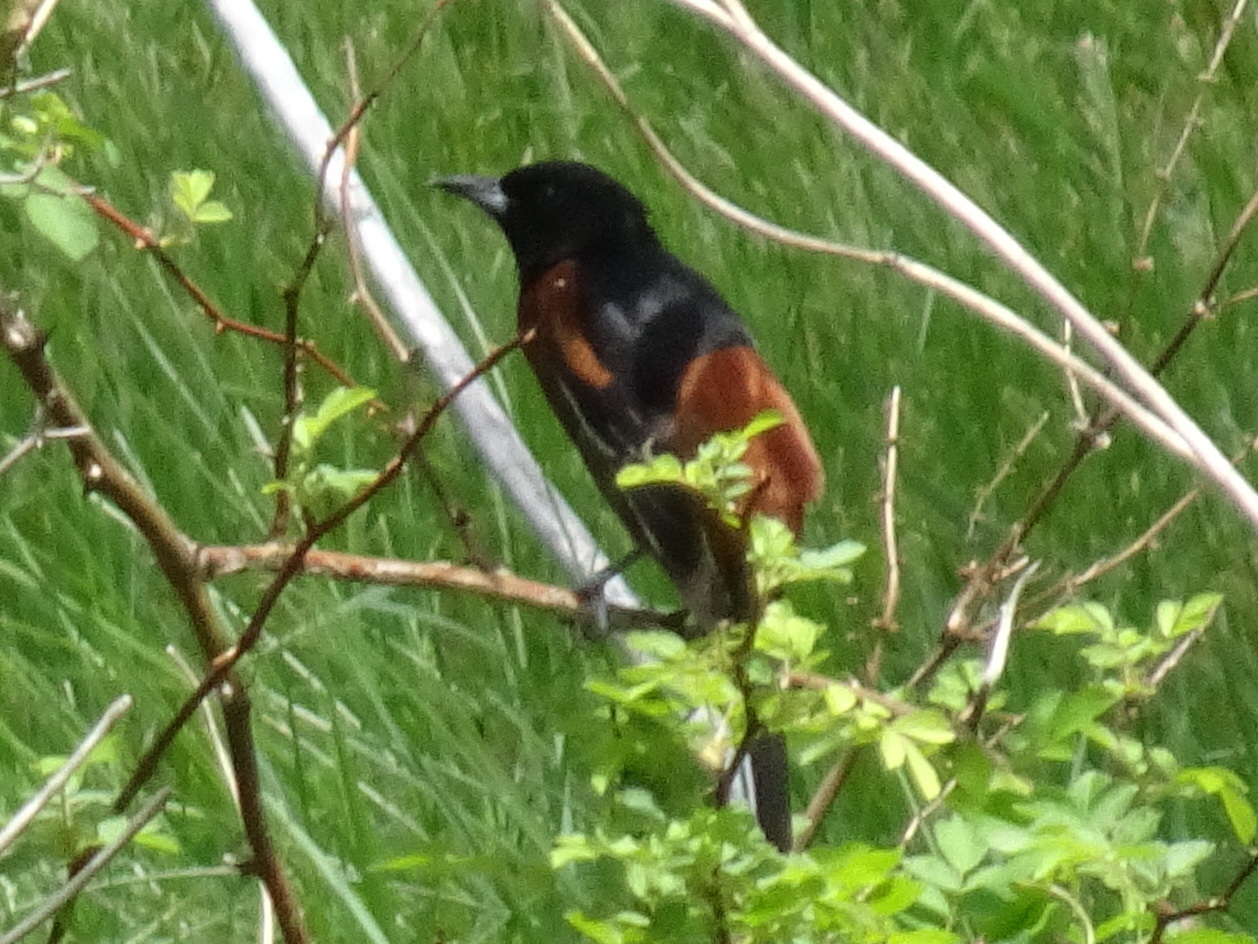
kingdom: Animalia
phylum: Chordata
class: Aves
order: Passeriformes
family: Icteridae
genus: Icterus
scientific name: Icterus spurius
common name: Orchard oriole
